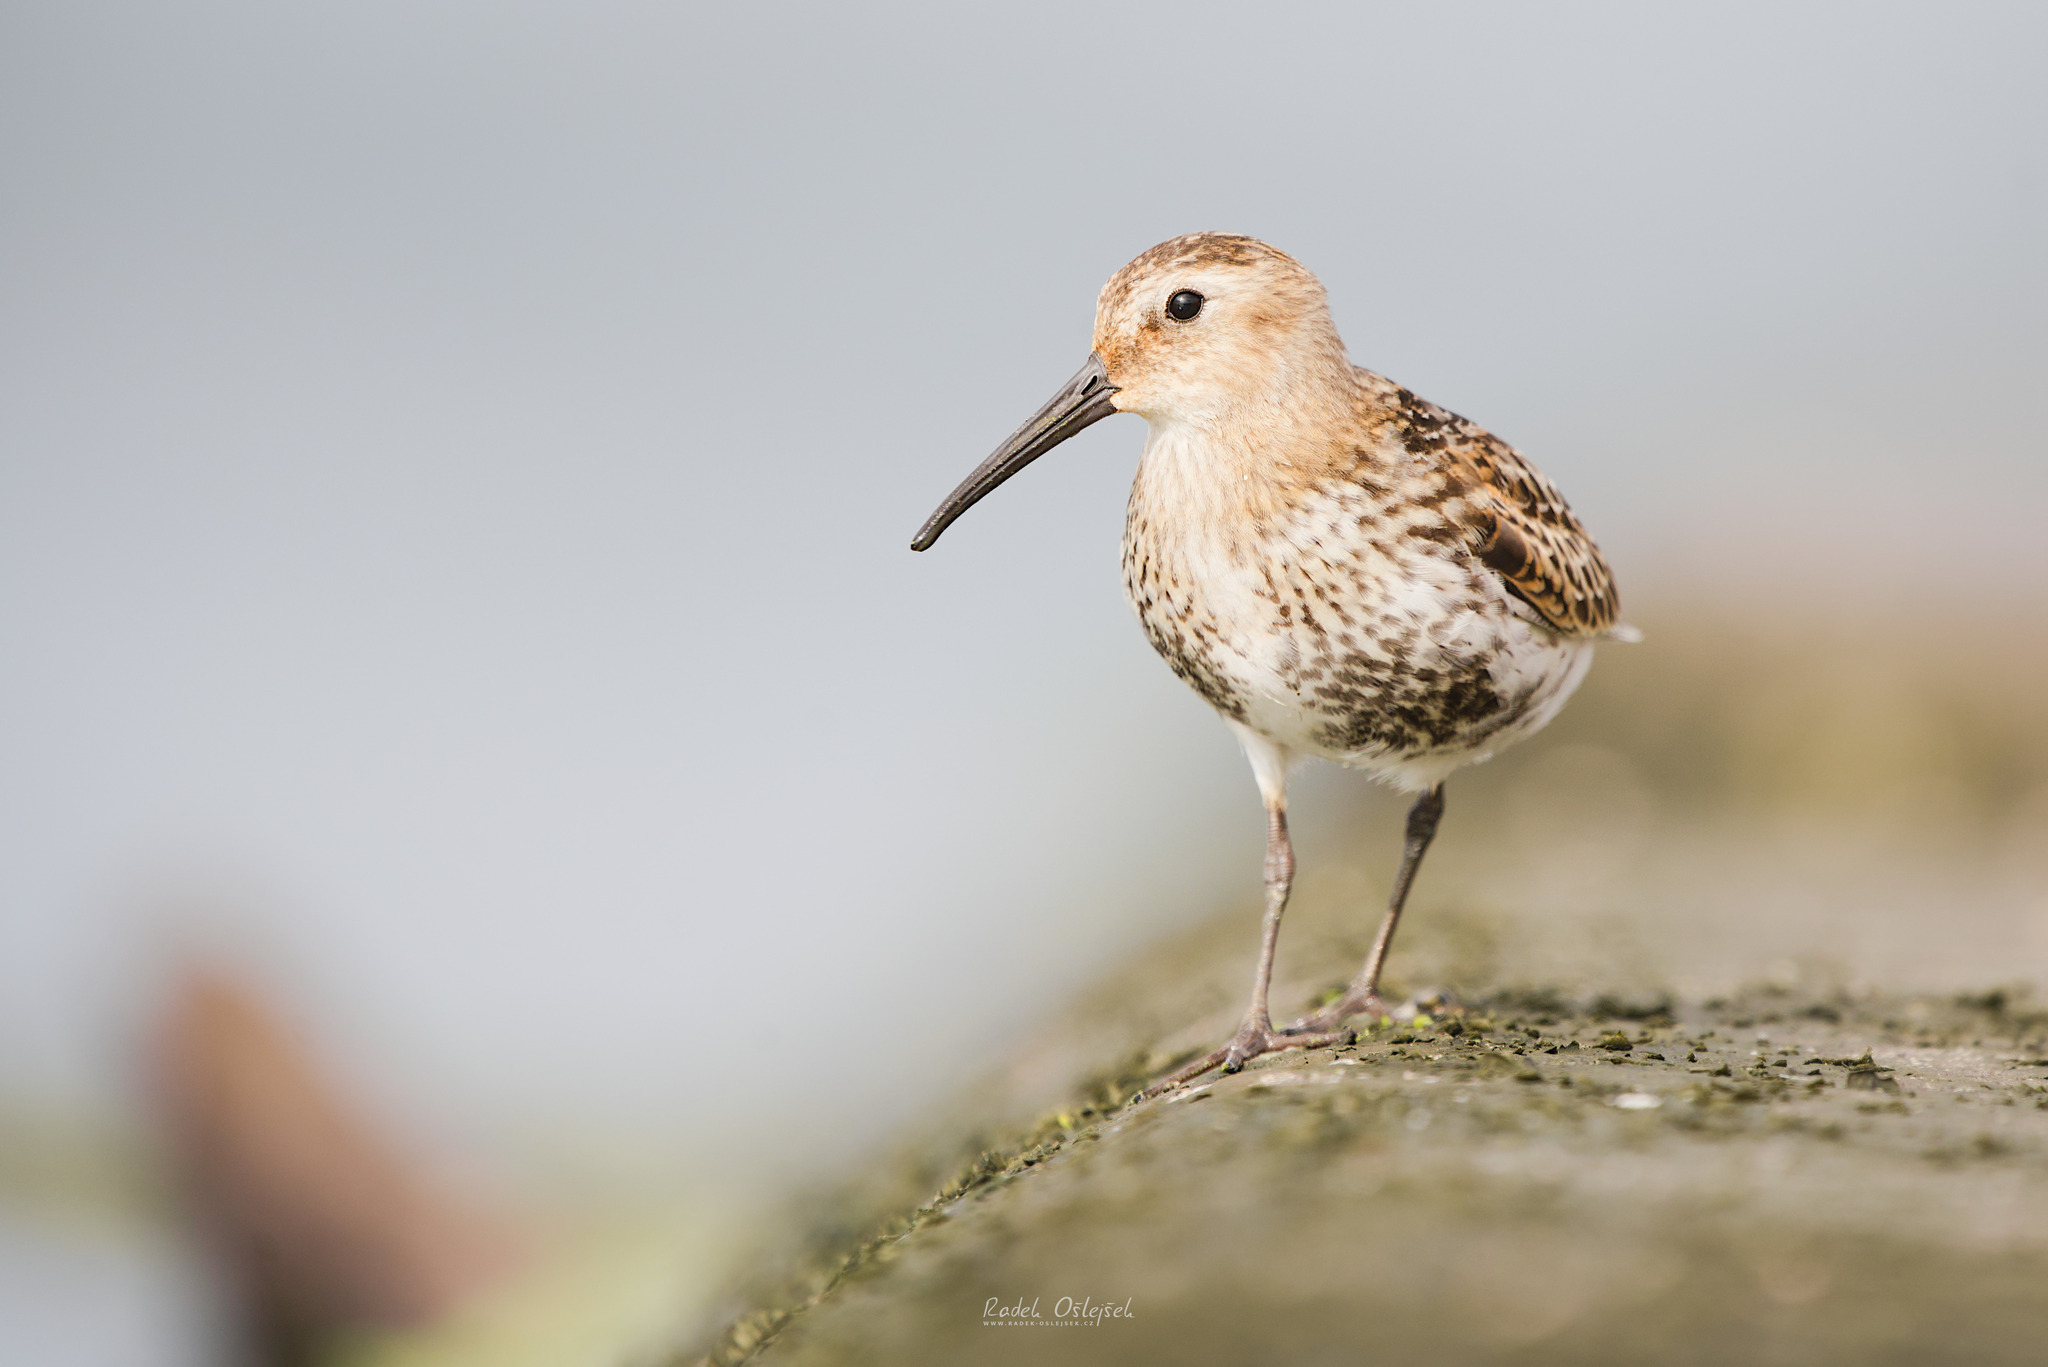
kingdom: Animalia
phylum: Chordata
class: Aves
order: Charadriiformes
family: Scolopacidae
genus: Calidris
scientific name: Calidris alpina
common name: Dunlin
